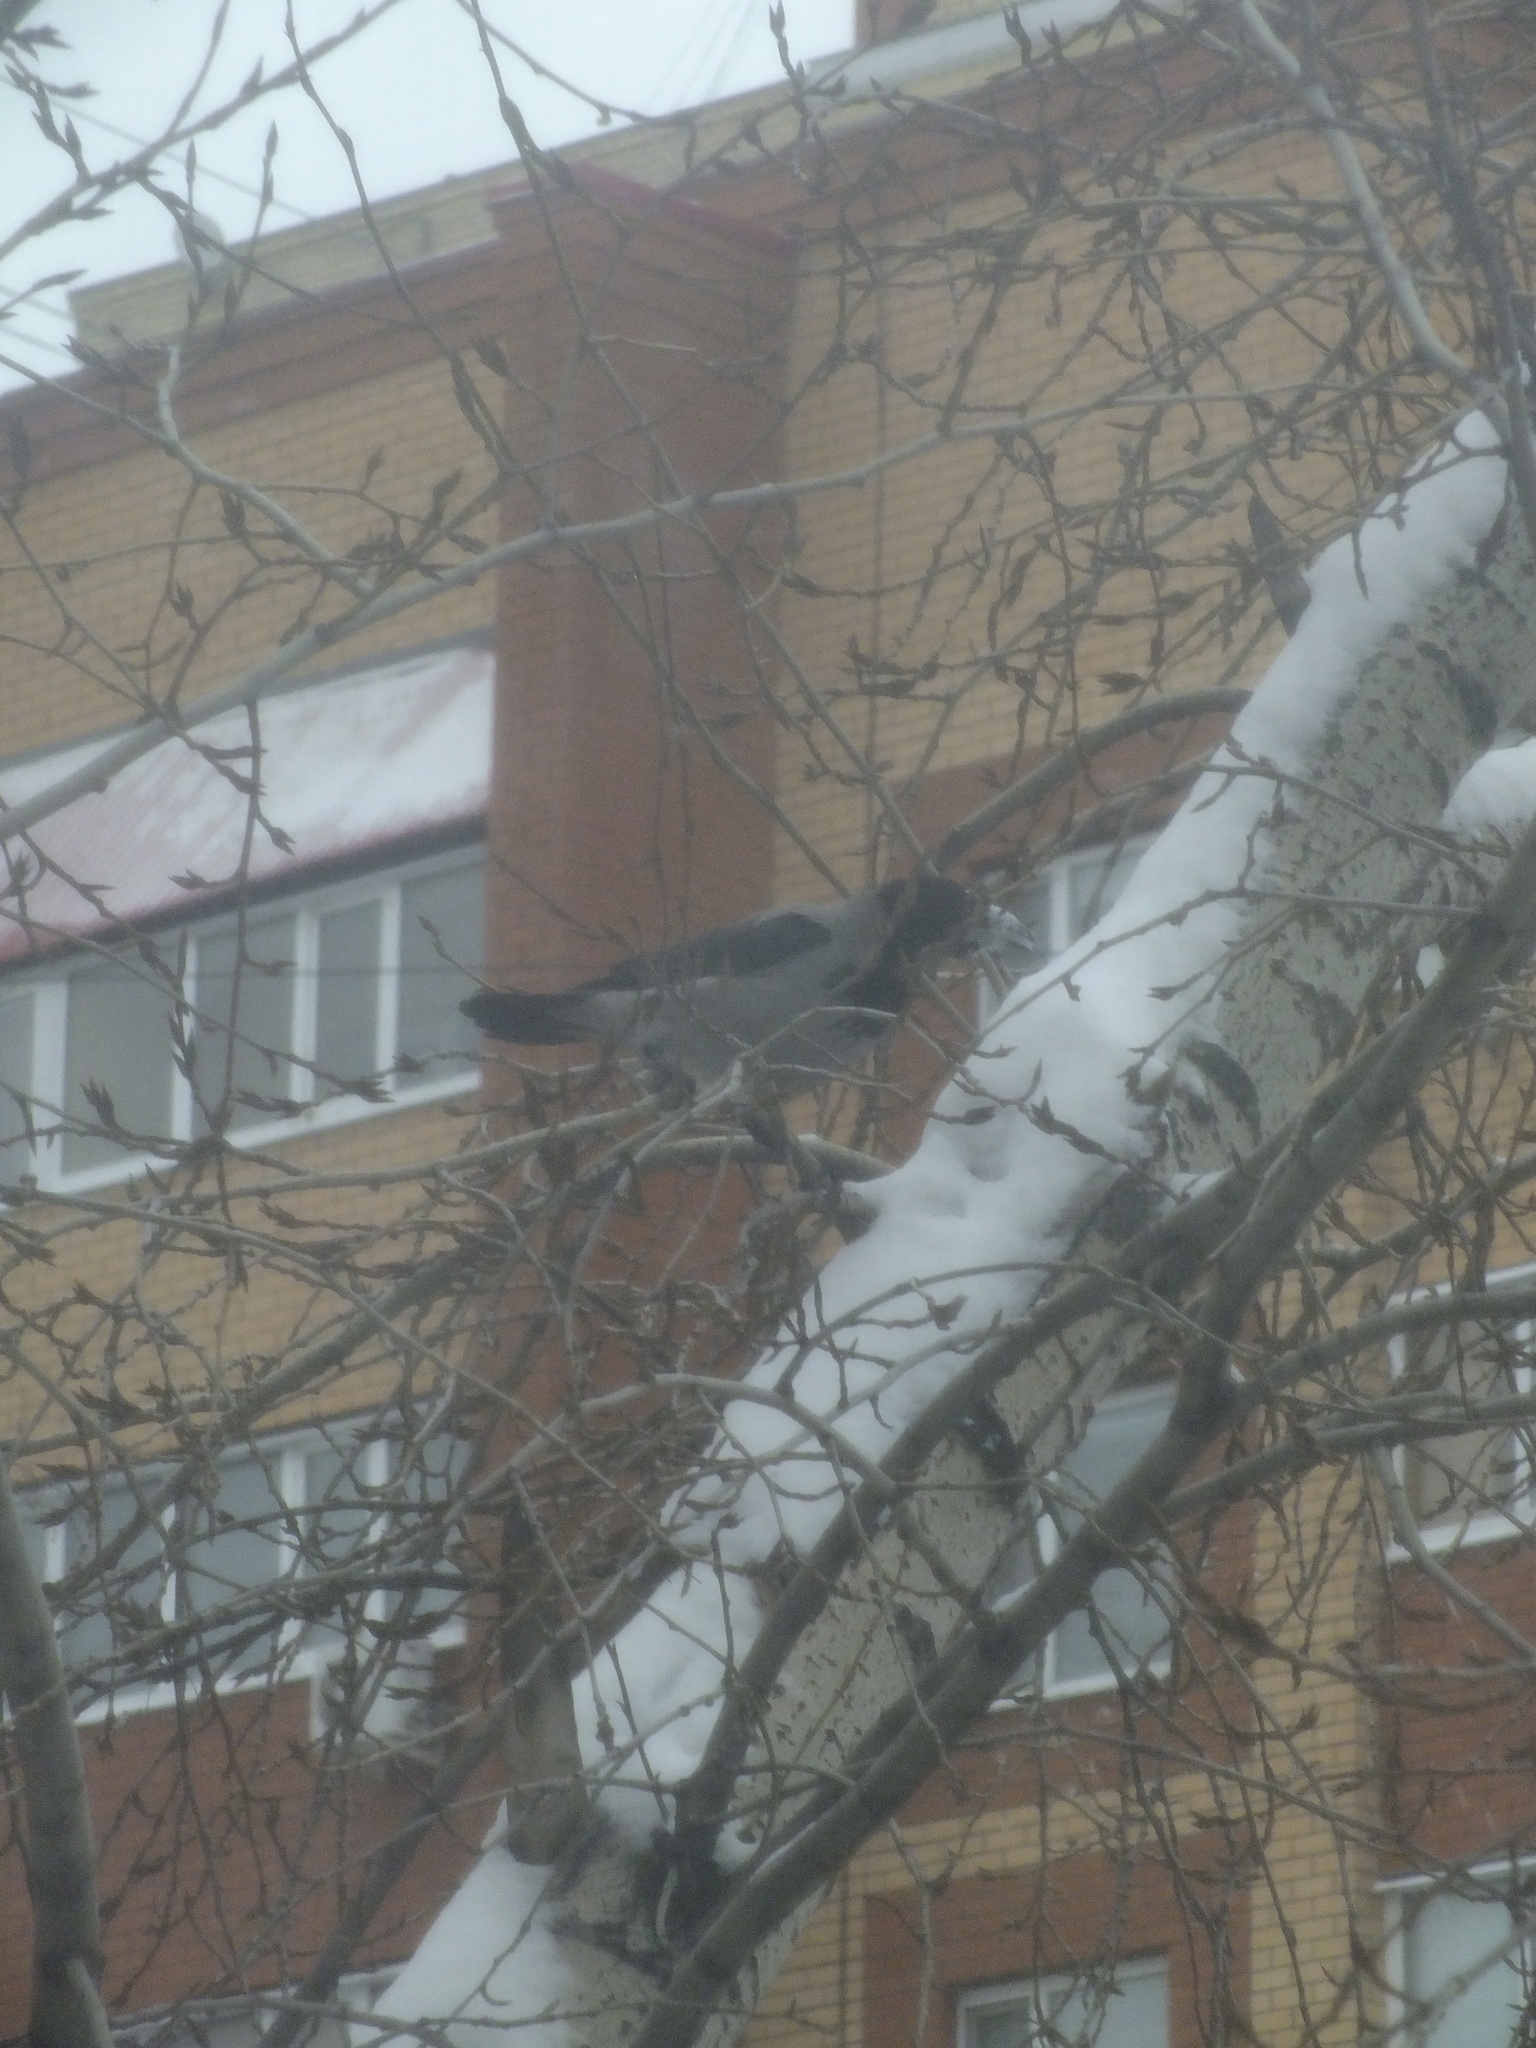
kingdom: Animalia
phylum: Chordata
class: Aves
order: Passeriformes
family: Corvidae
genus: Corvus
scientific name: Corvus cornix
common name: Hooded crow
